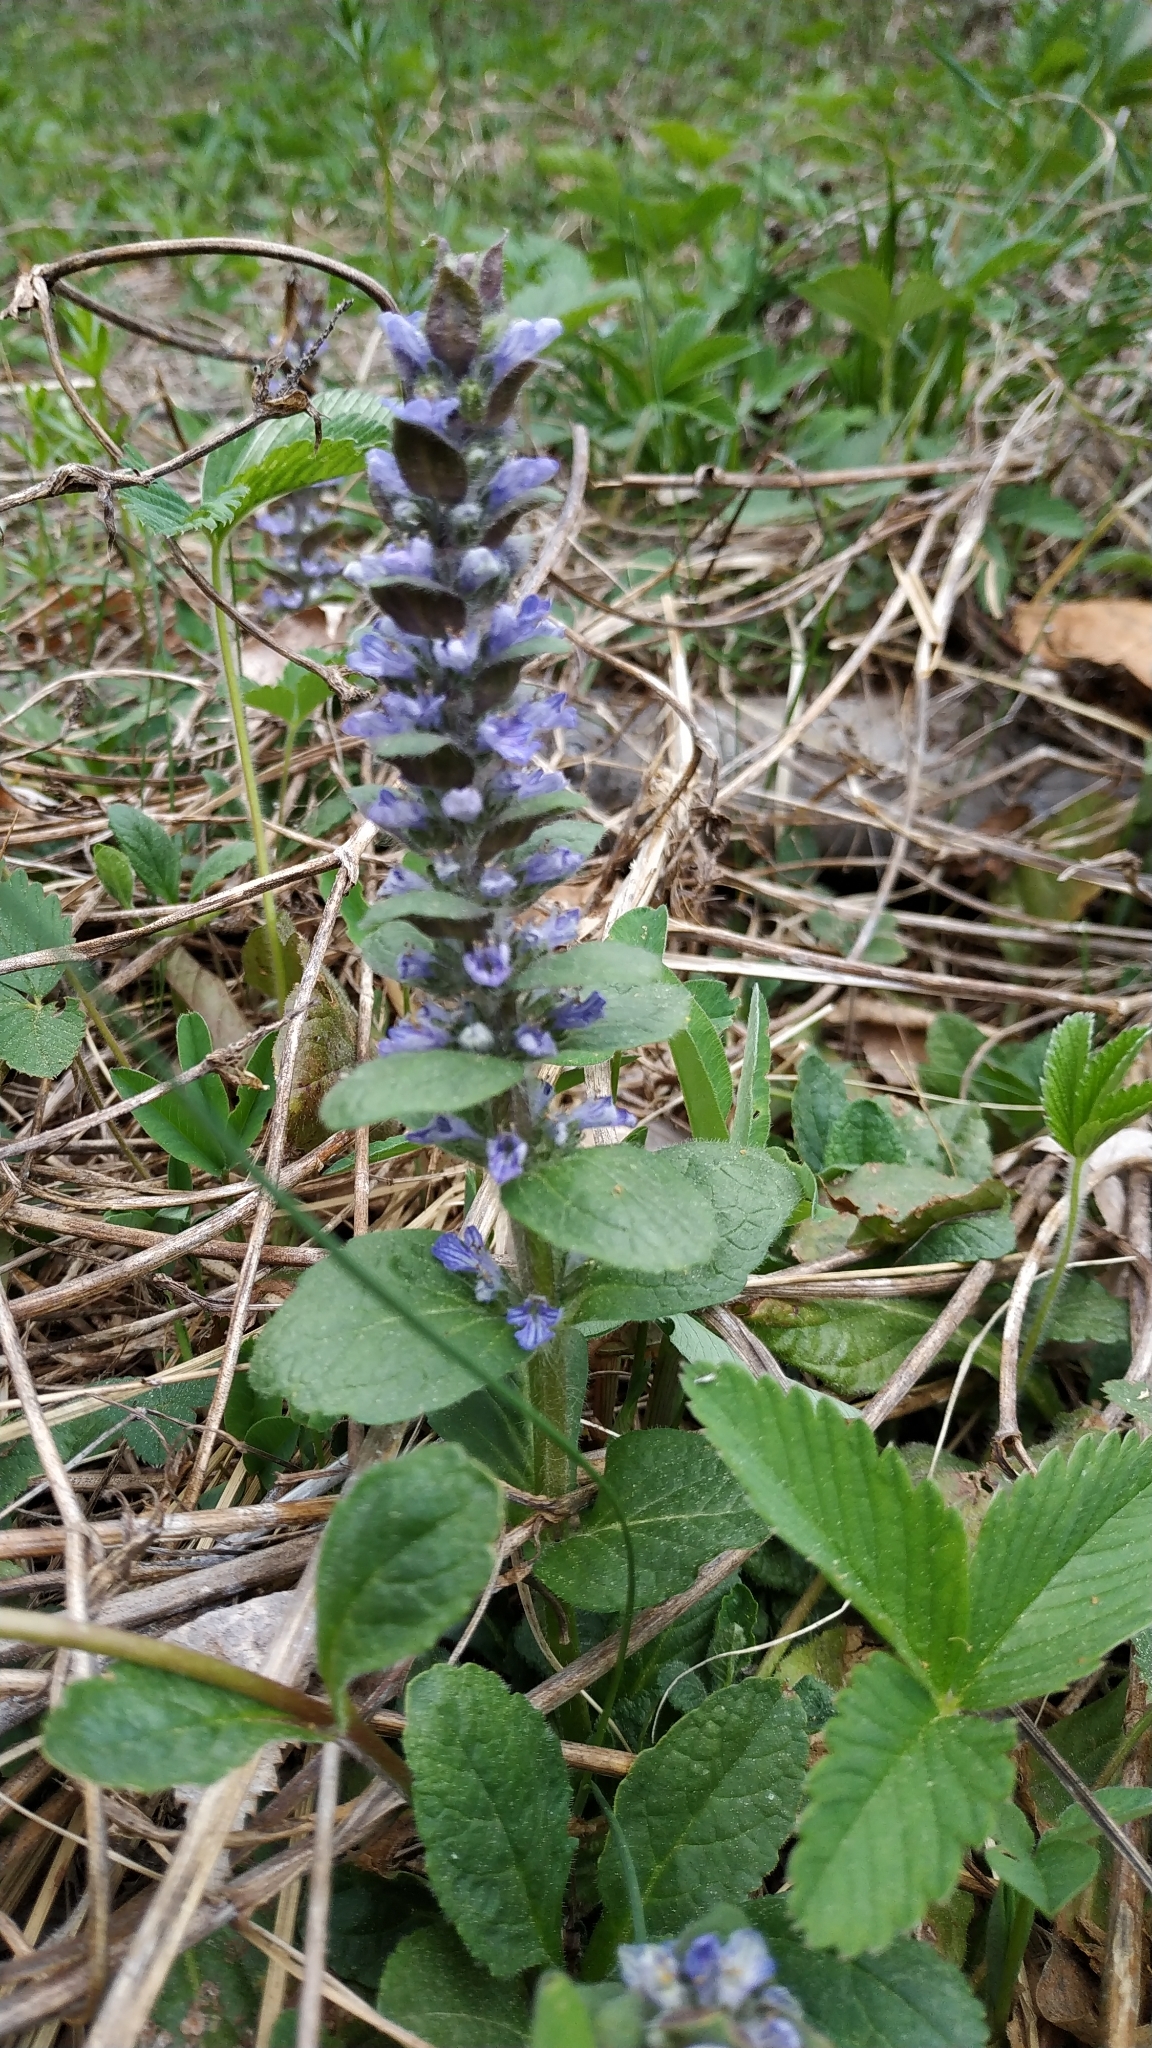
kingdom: Plantae
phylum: Tracheophyta
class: Magnoliopsida
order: Lamiales
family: Lamiaceae
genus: Ajuga
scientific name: Ajuga reptans
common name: Bugle
